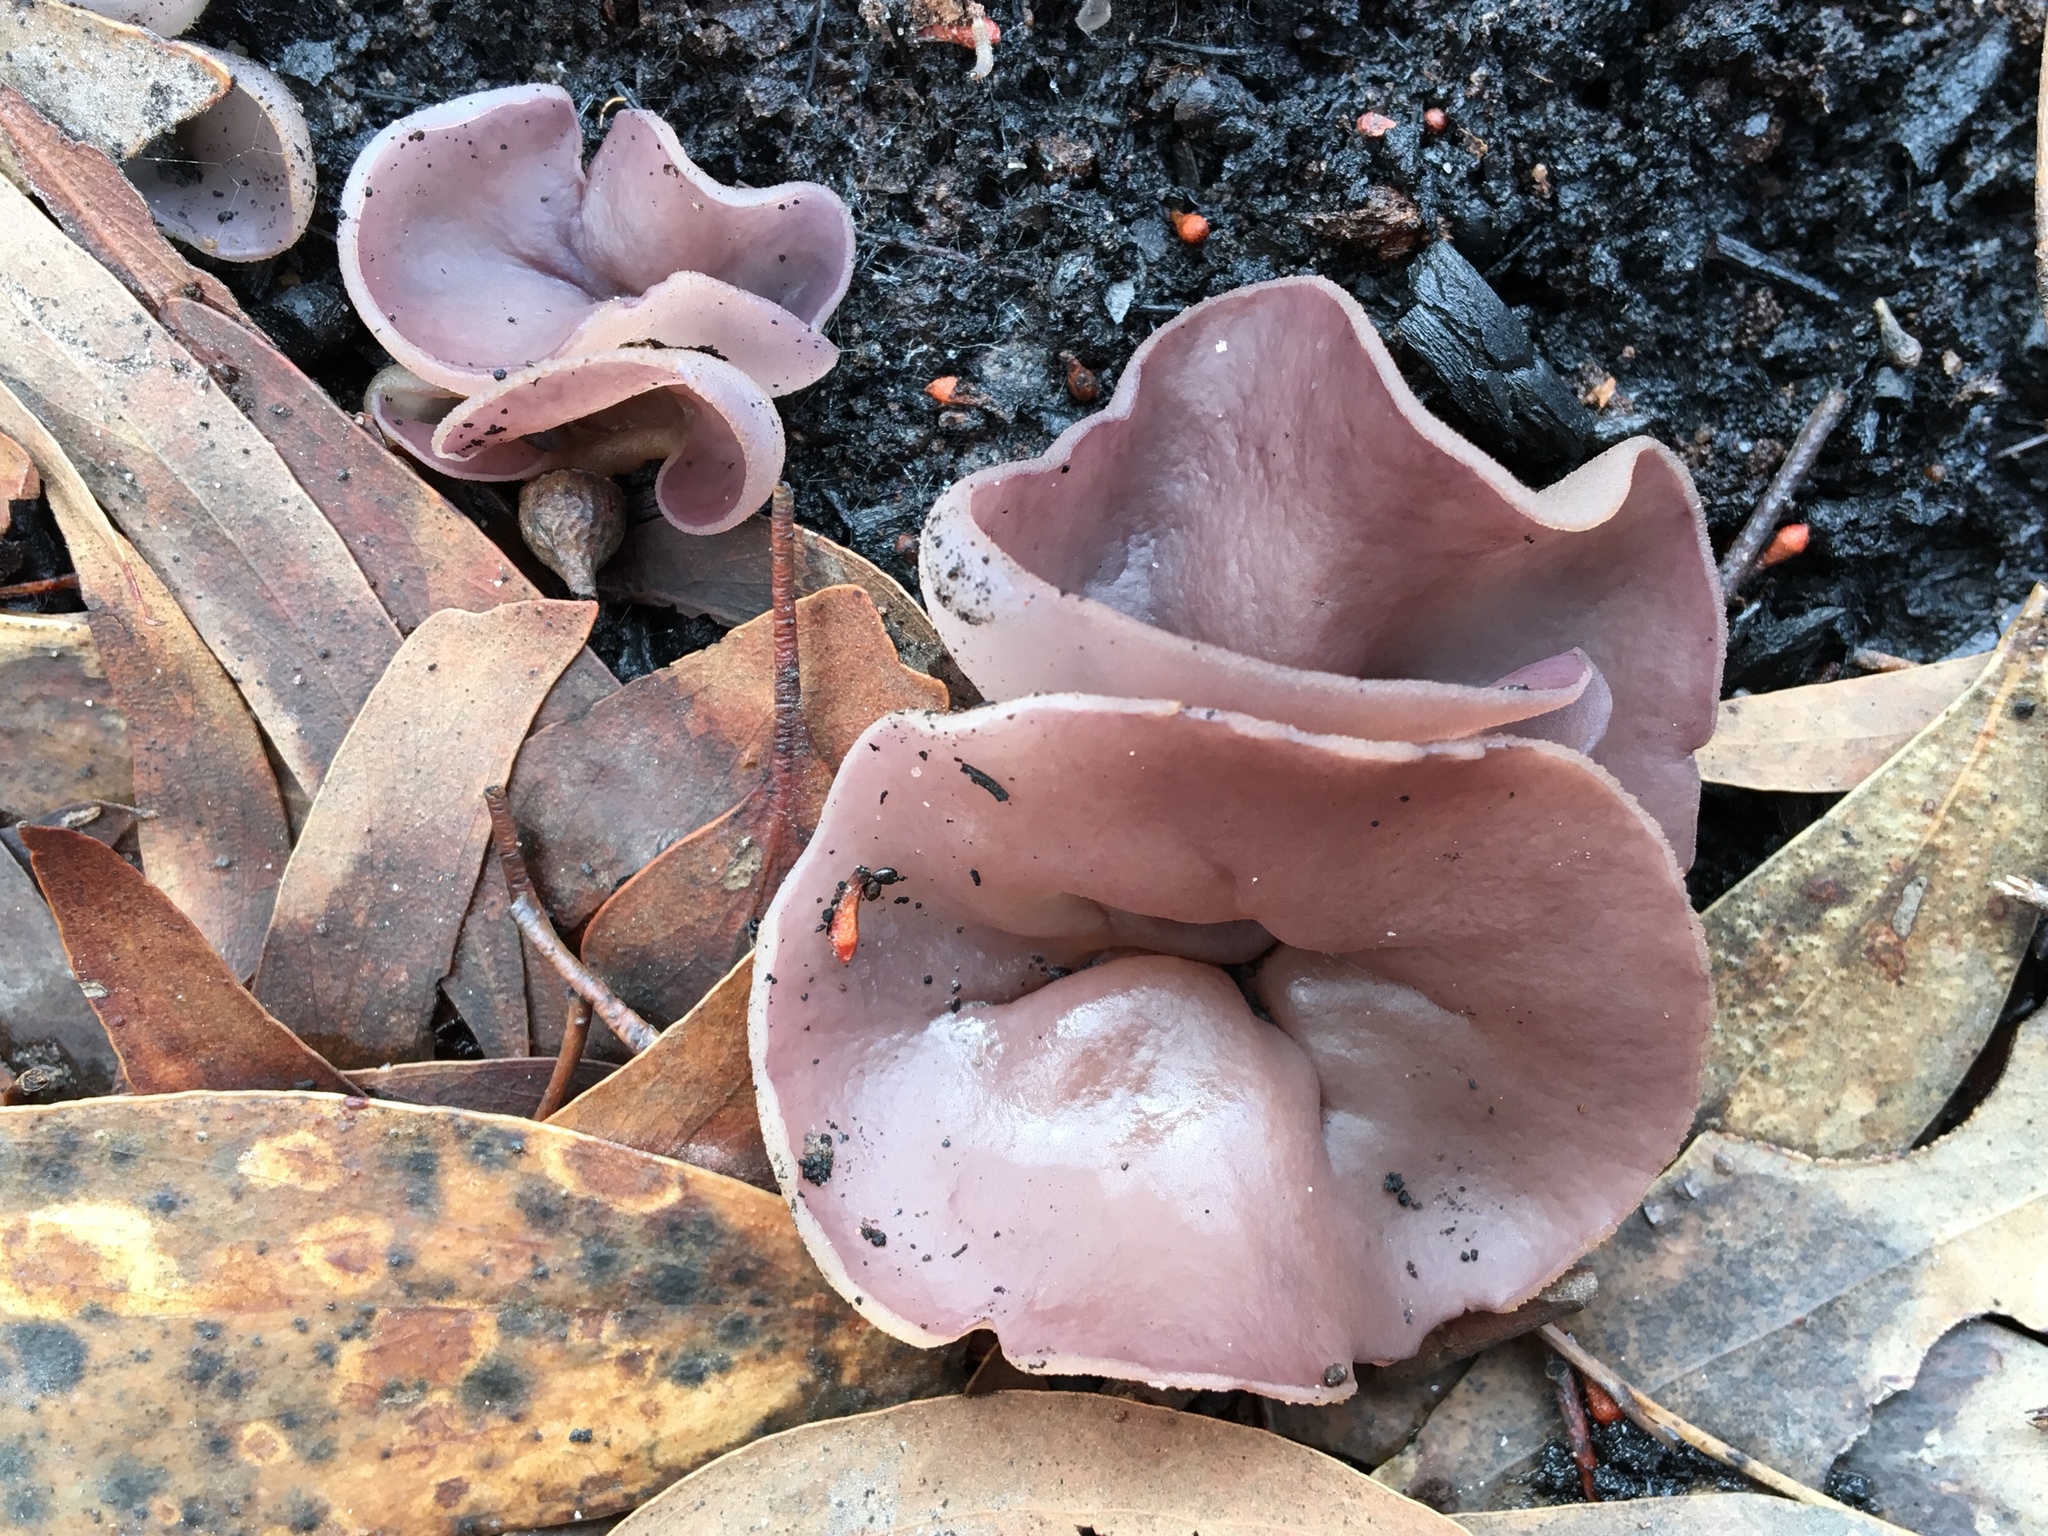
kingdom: Fungi
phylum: Ascomycota
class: Pezizomycetes
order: Pezizales
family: Pezizaceae
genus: Geoscypha
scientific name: Geoscypha tenacella
